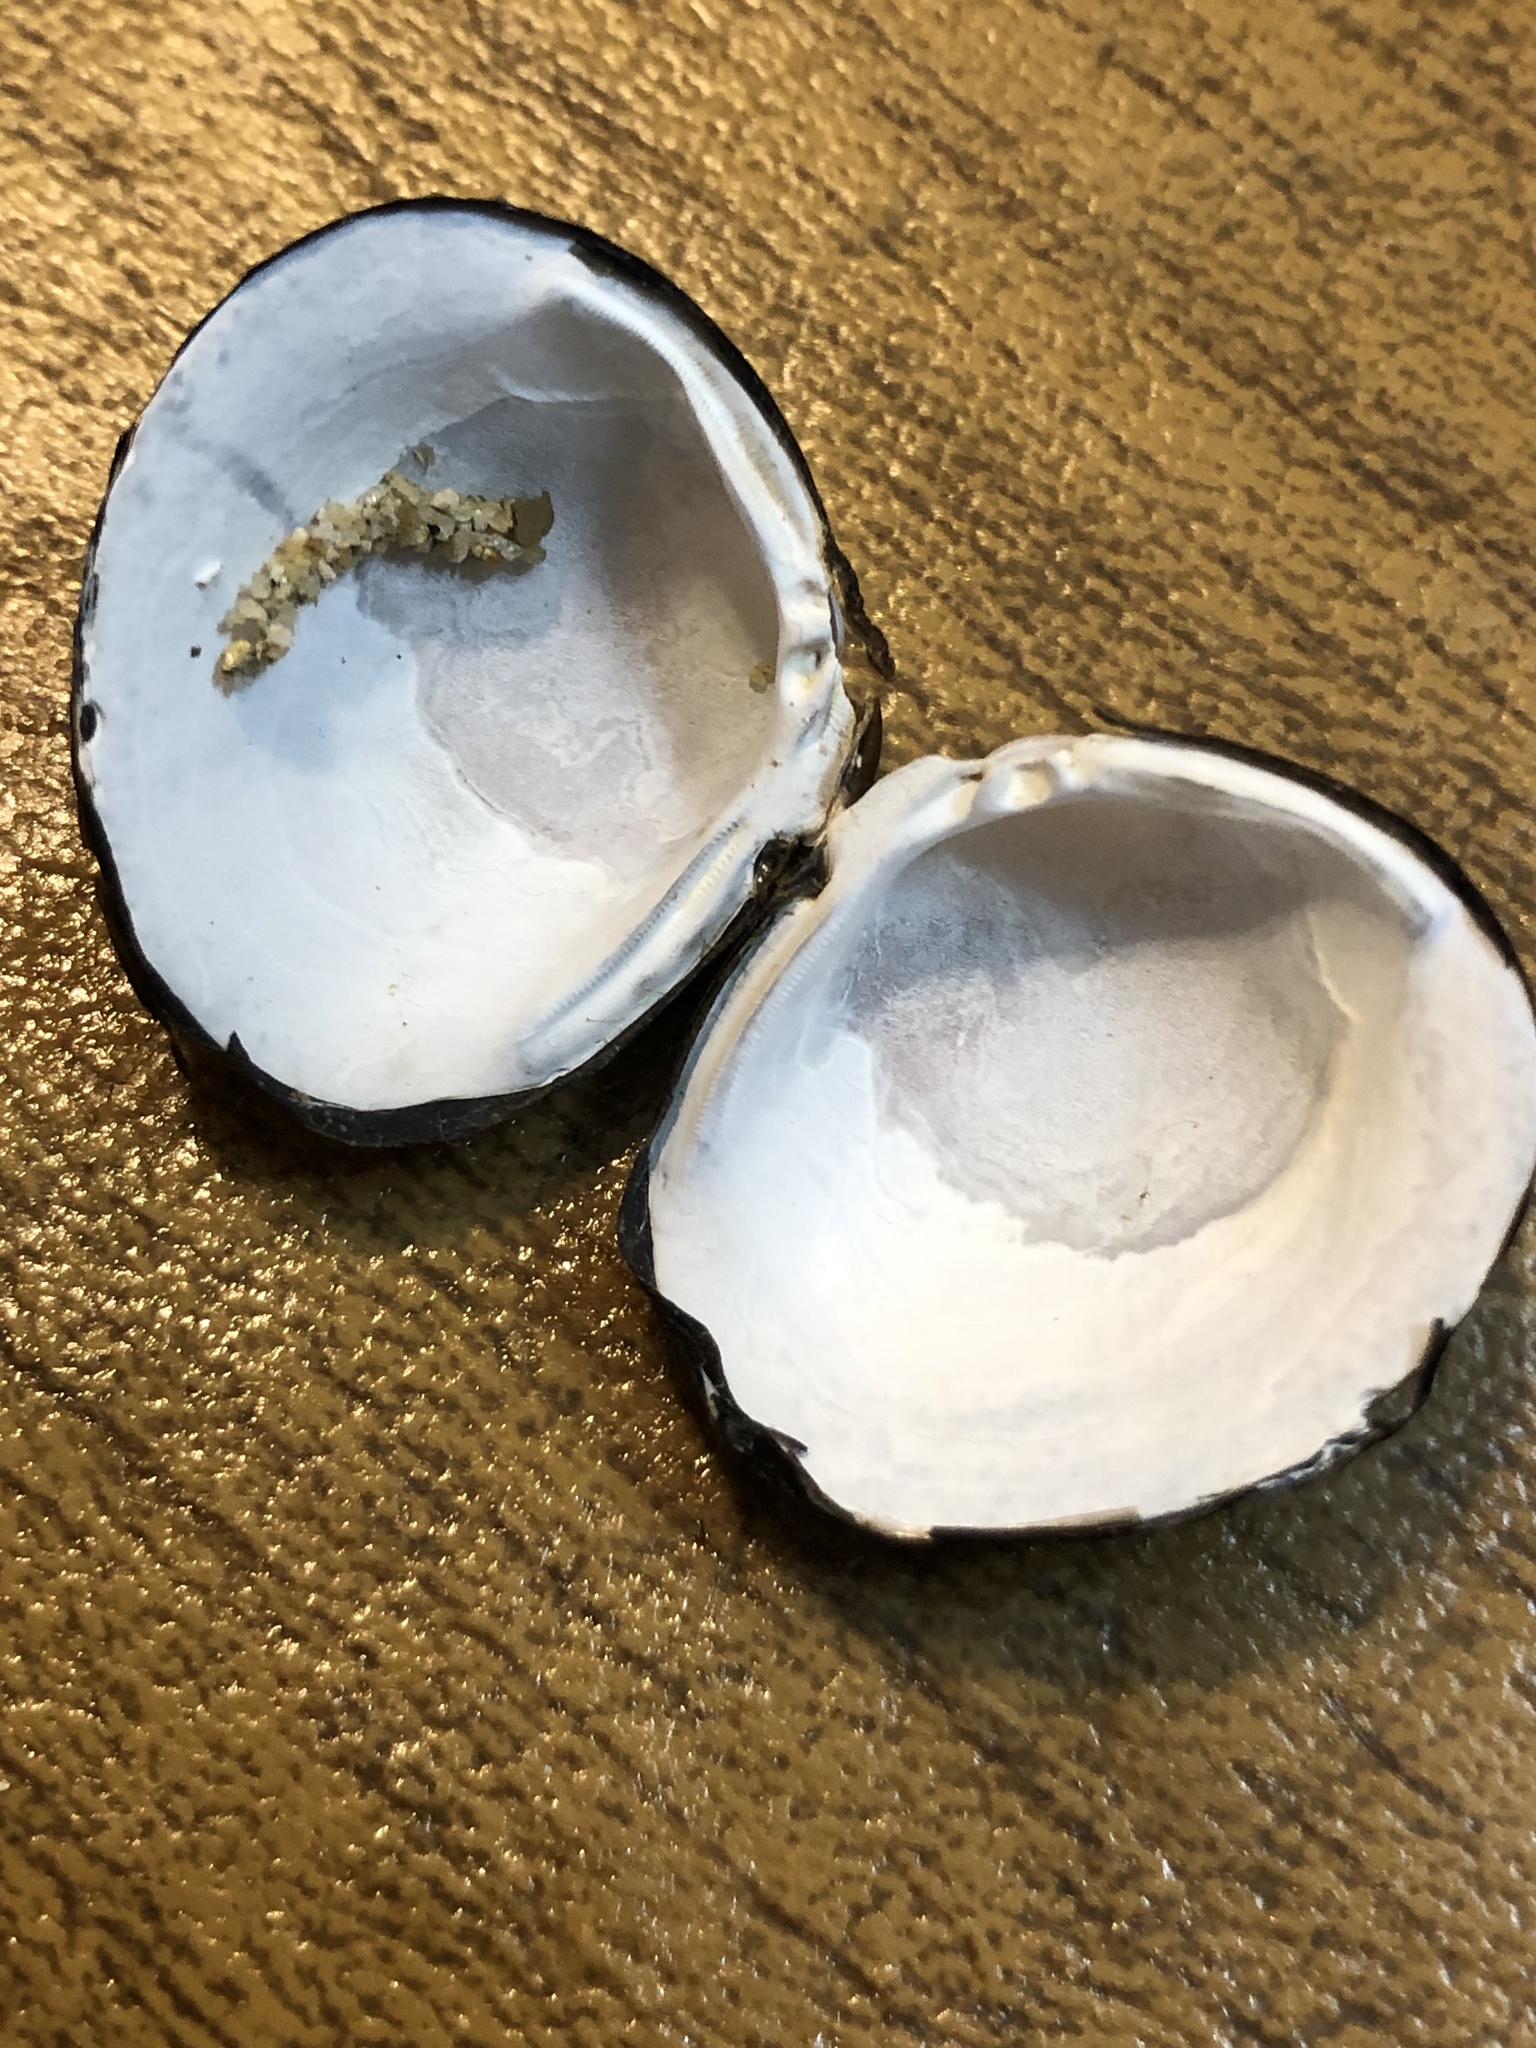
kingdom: Animalia
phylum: Mollusca
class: Bivalvia
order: Venerida
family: Cyrenidae
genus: Corbicula
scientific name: Corbicula fluminea
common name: Asian clam
